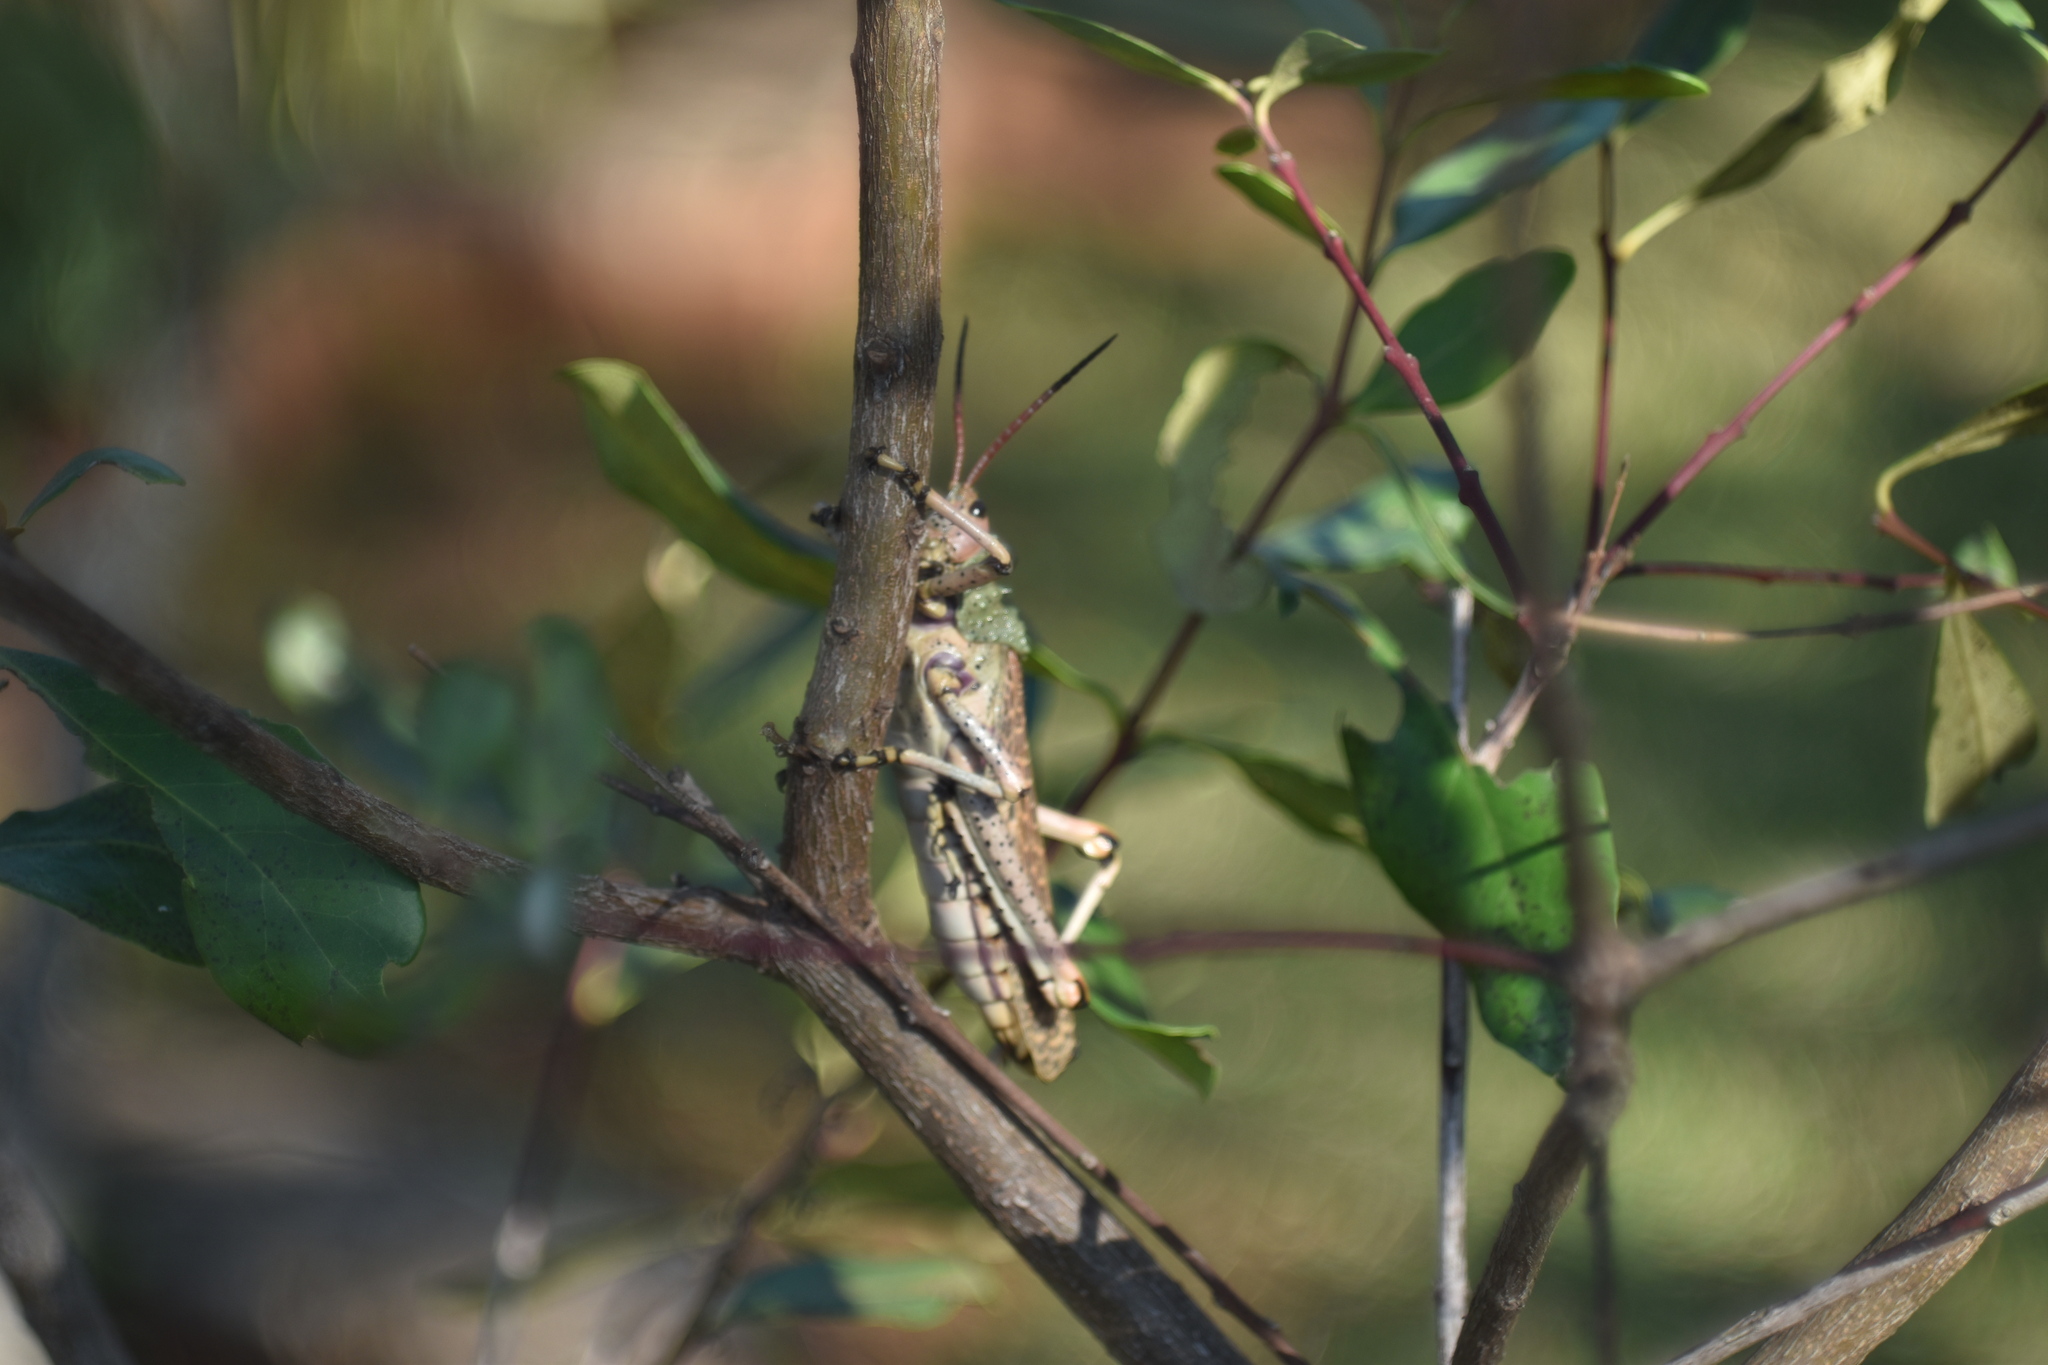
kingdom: Animalia
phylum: Arthropoda
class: Insecta
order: Orthoptera
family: Pyrgomorphidae
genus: Phymateus
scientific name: Phymateus leprosus
